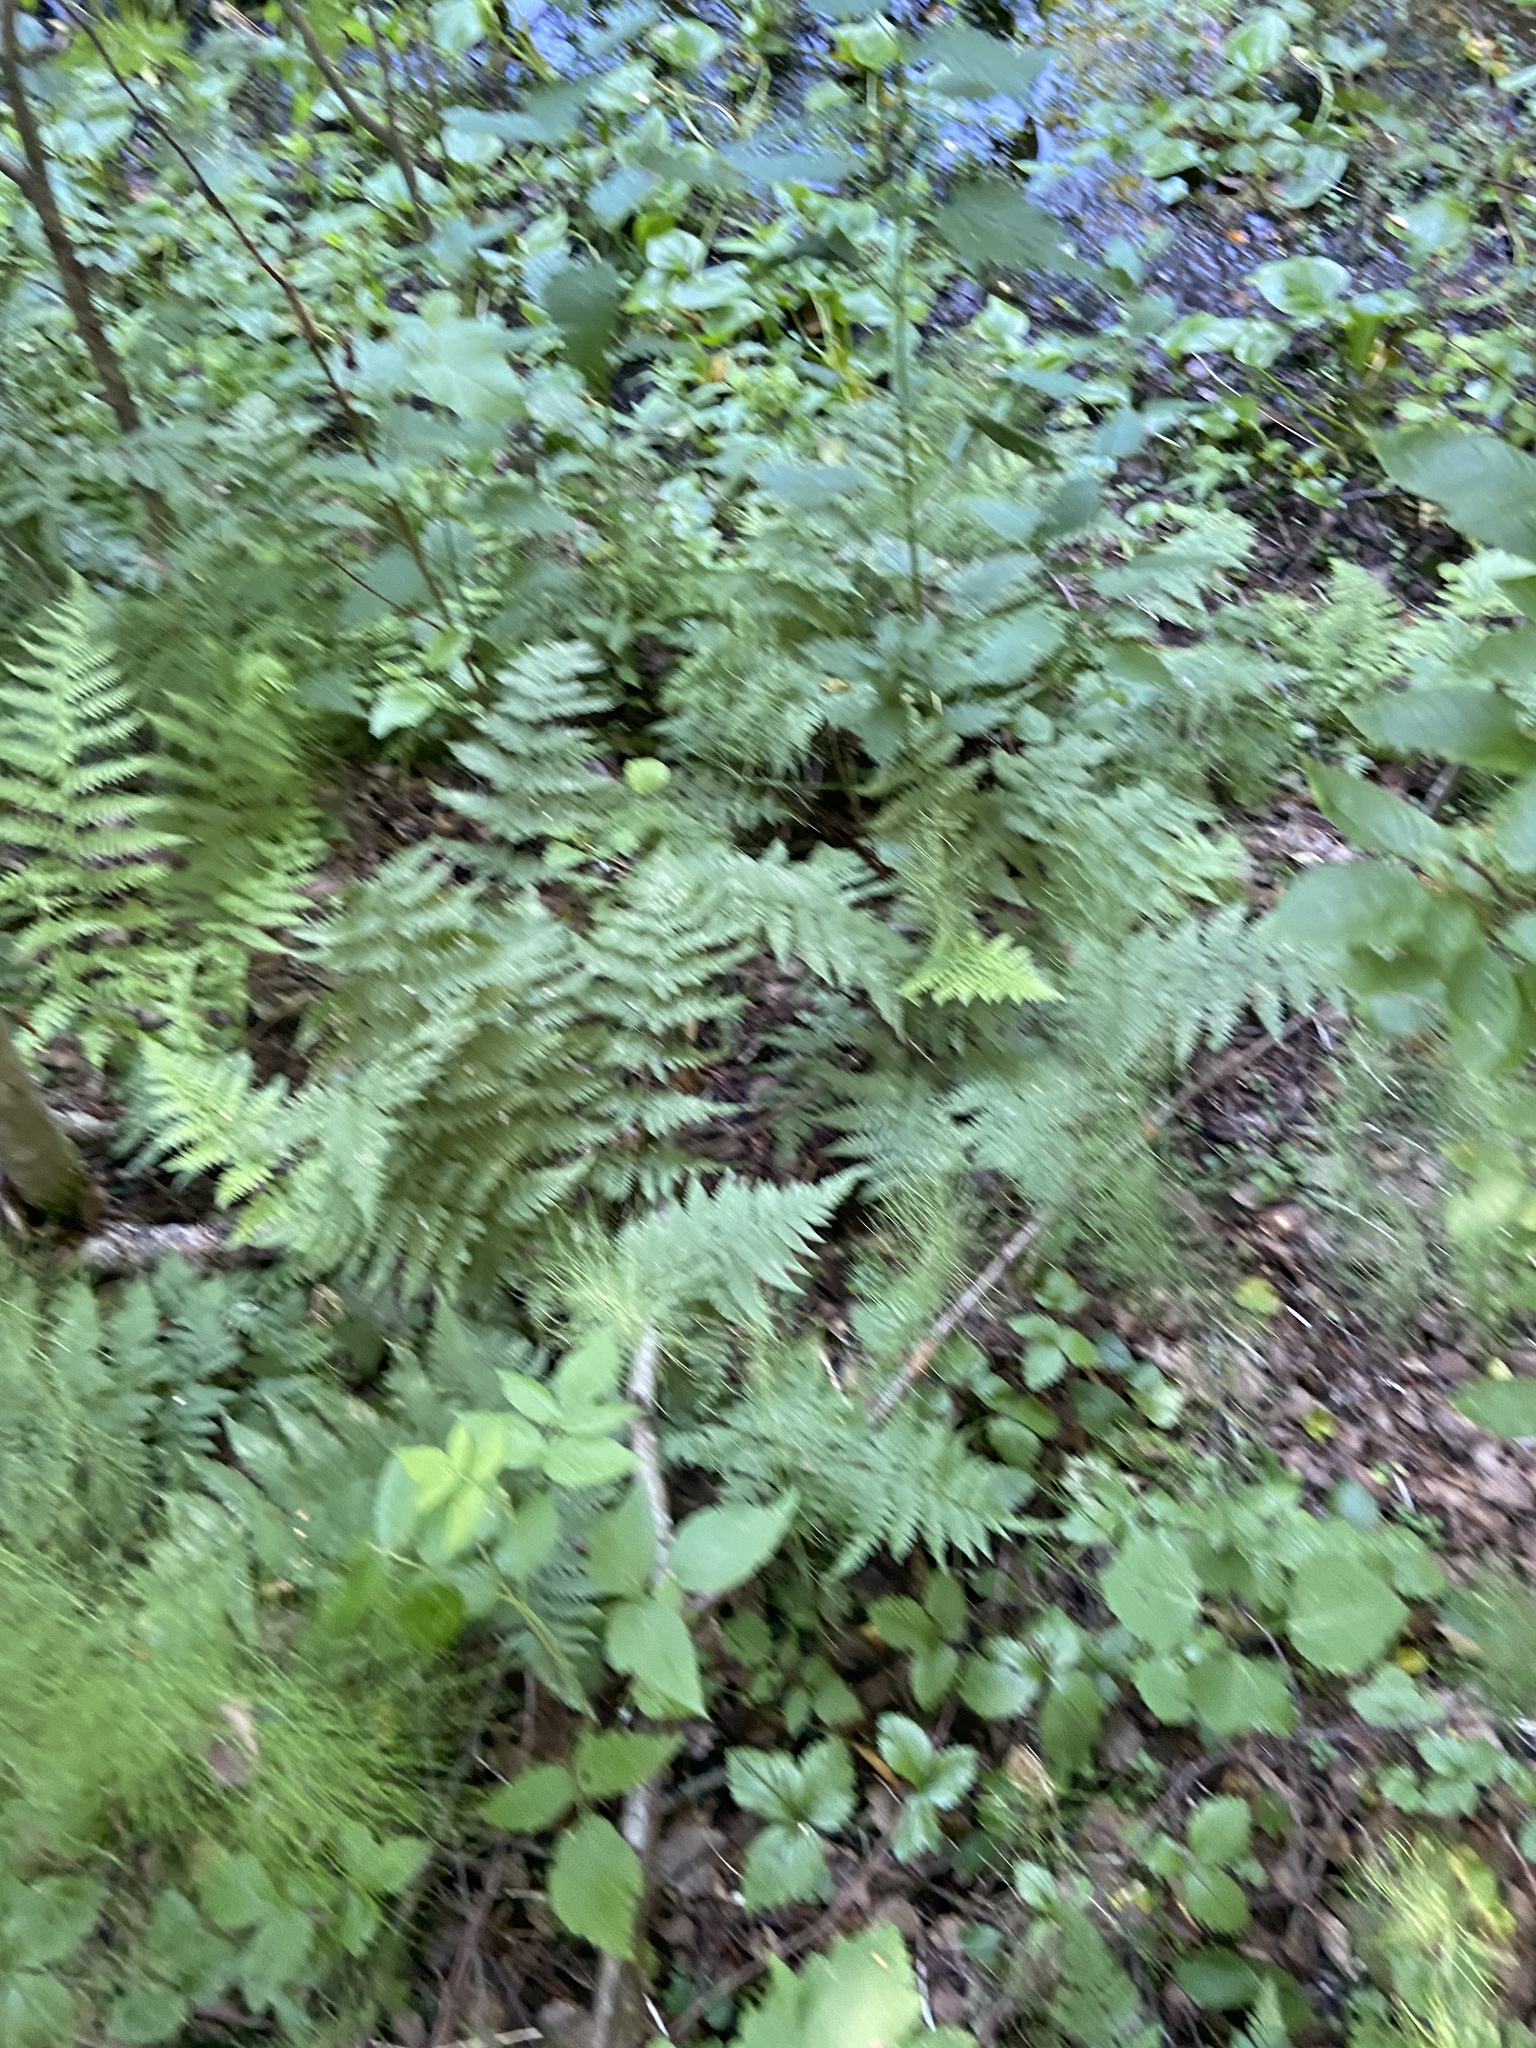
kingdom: Plantae
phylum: Tracheophyta
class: Polypodiopsida
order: Polypodiales
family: Dryopteridaceae
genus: Dryopteris
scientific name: Dryopteris carthusiana
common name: Narrow buckler-fern
